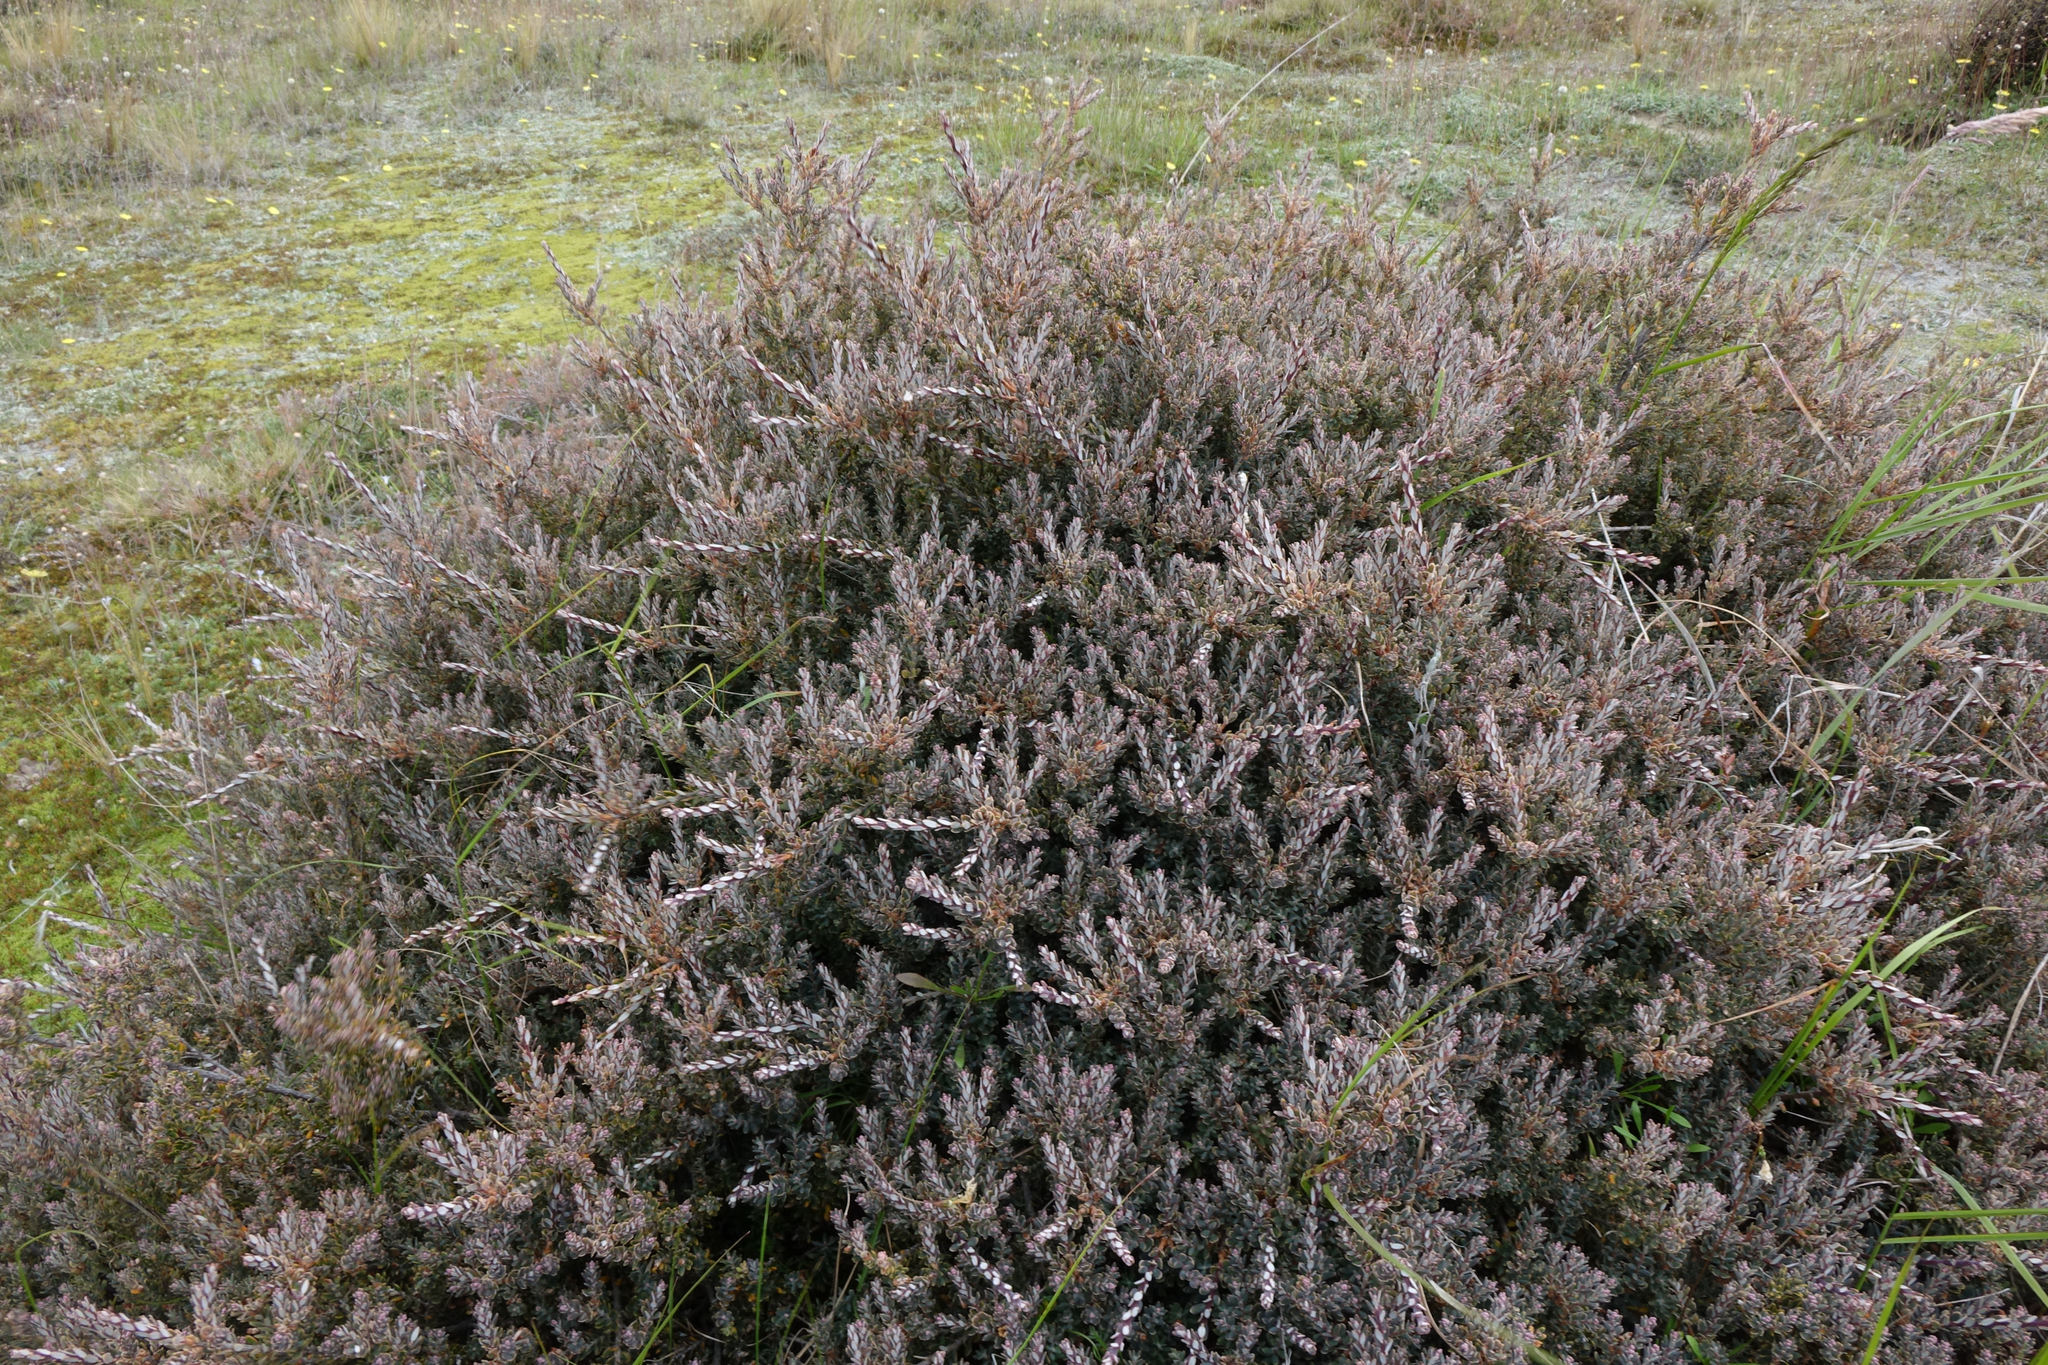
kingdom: Plantae
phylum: Tracheophyta
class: Magnoliopsida
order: Ericales
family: Ericaceae
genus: Acrothamnus
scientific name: Acrothamnus colensoi
